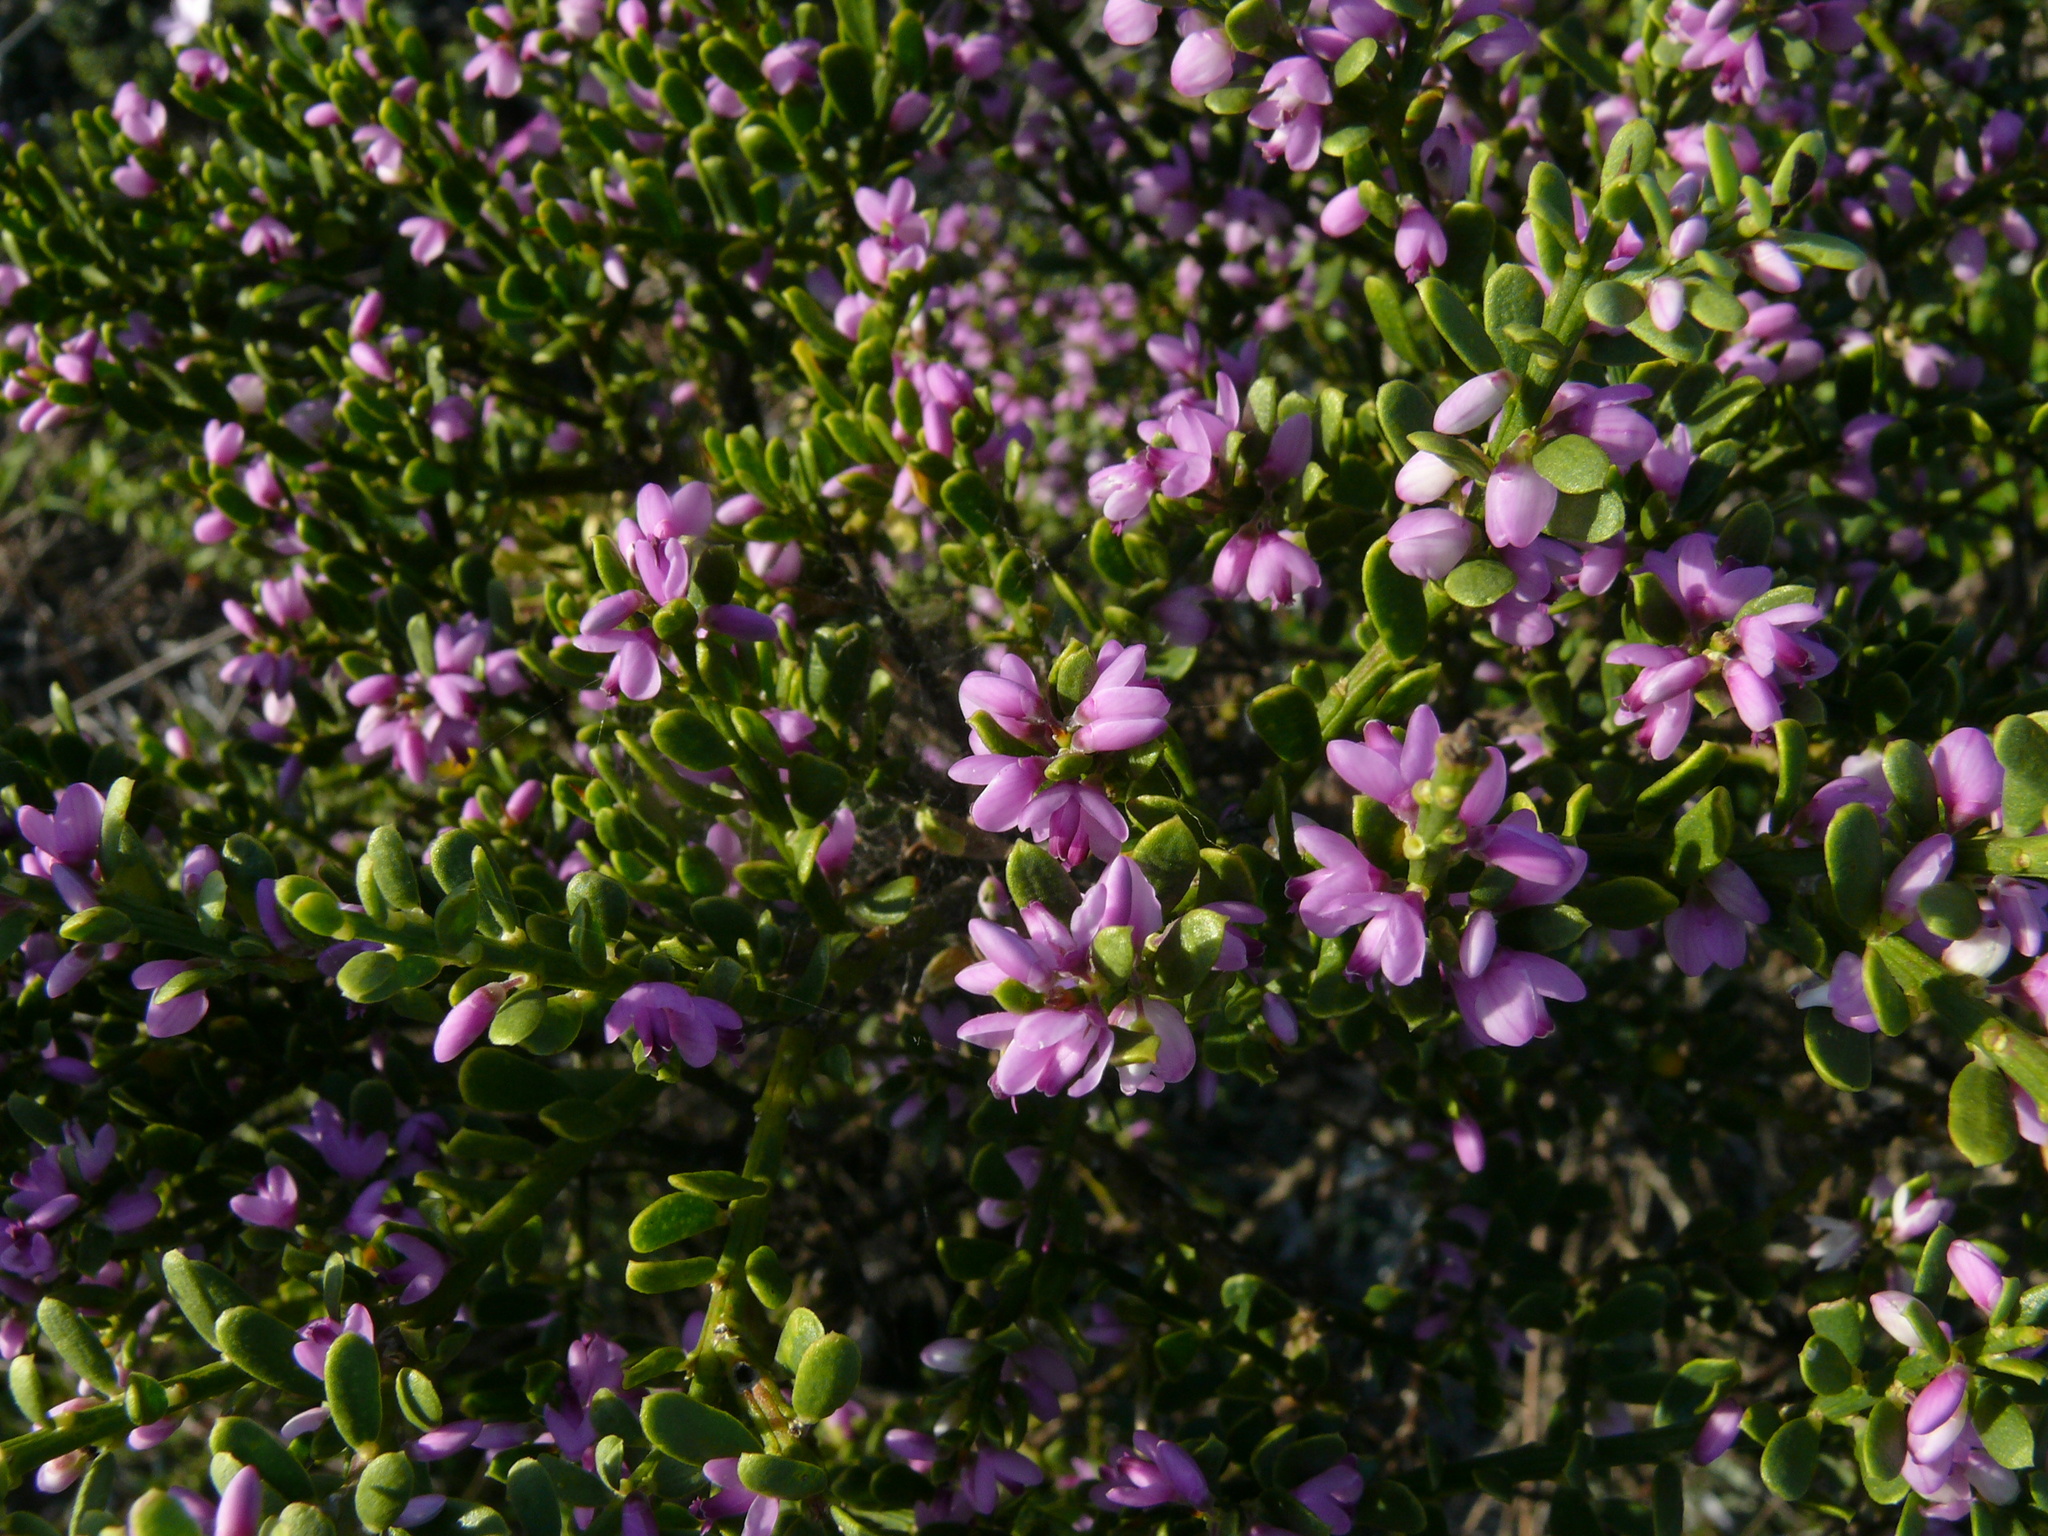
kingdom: Plantae
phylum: Tracheophyta
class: Magnoliopsida
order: Fabales
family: Polygalaceae
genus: Muraltia
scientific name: Muraltia spinosa
